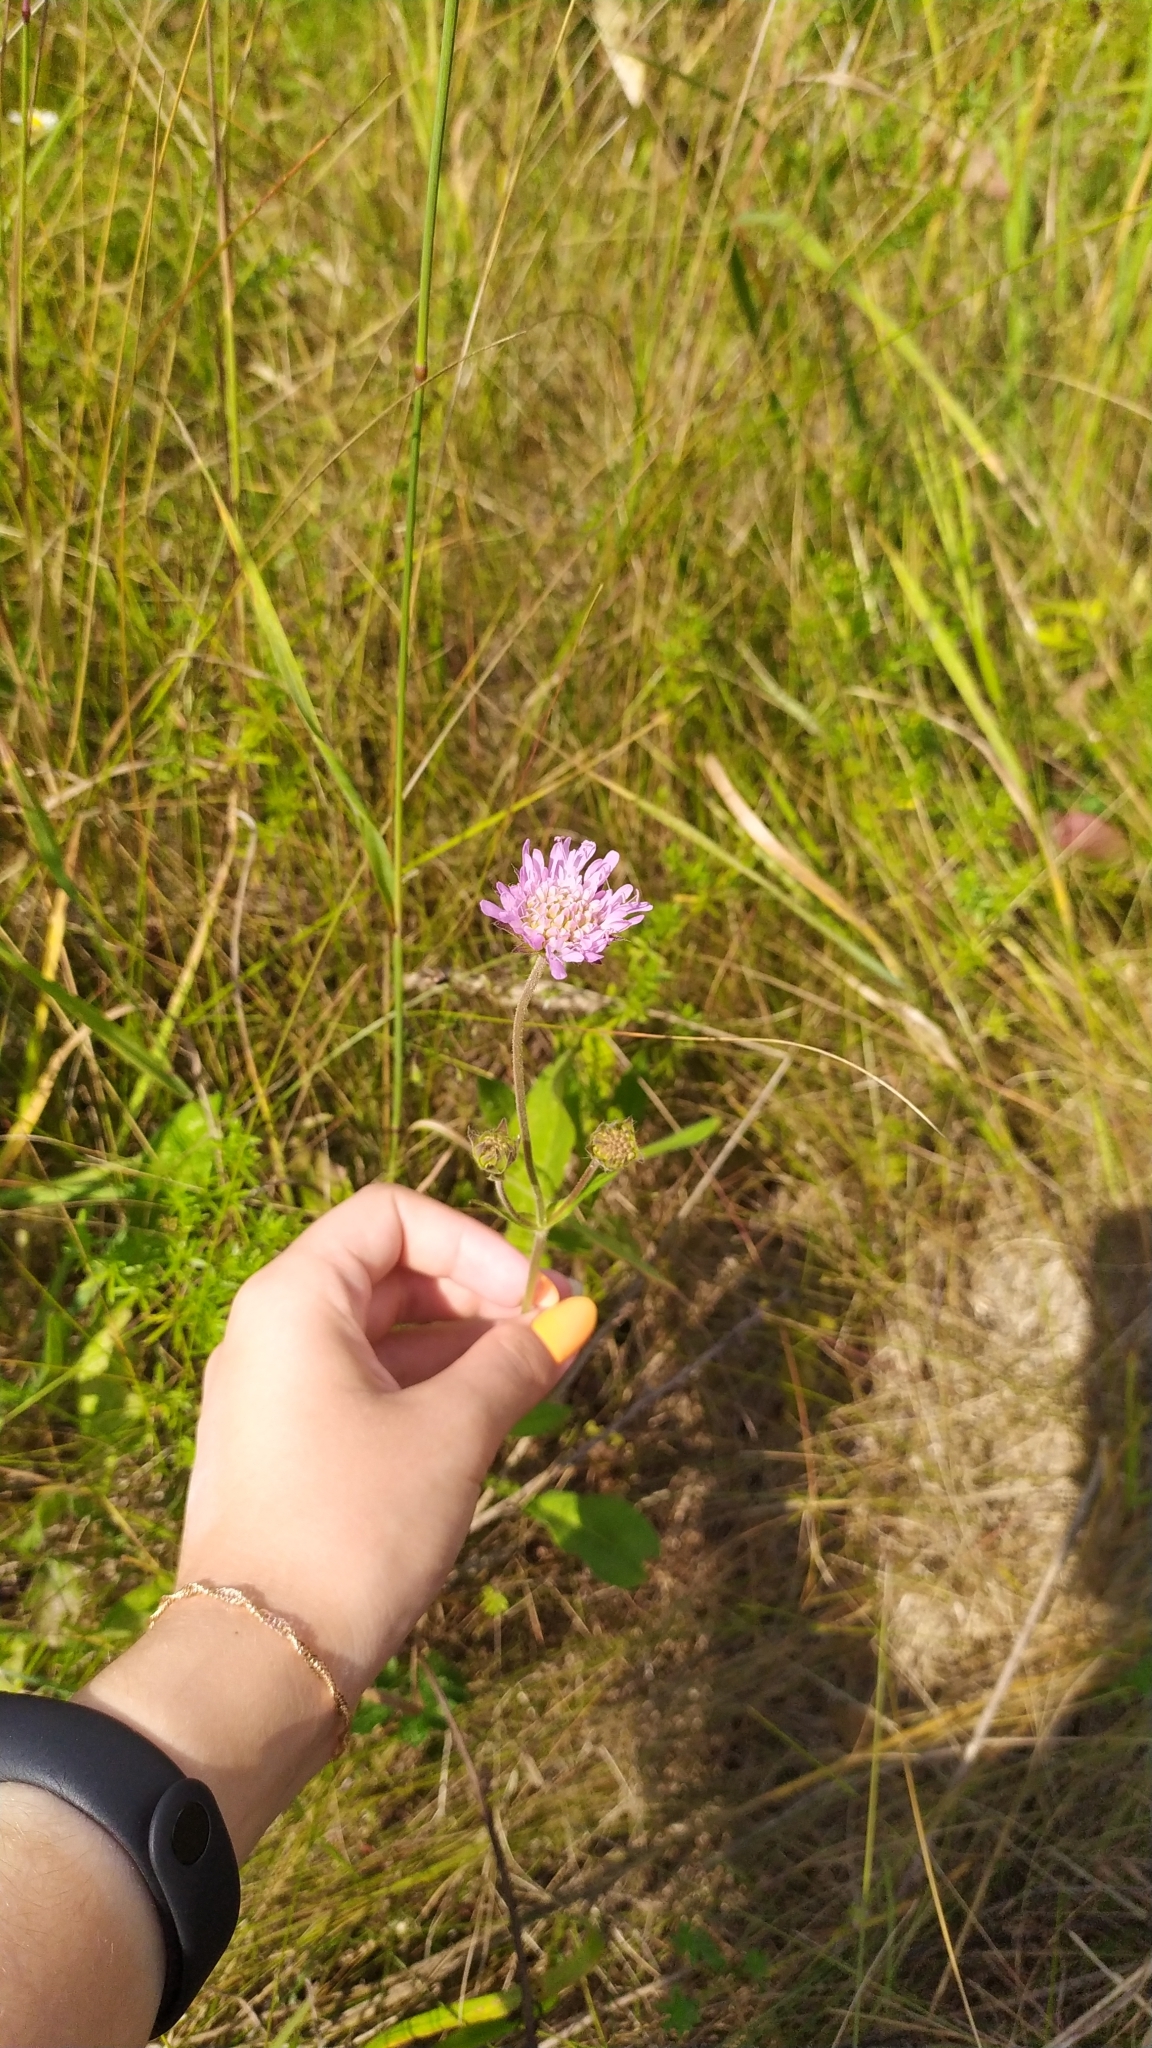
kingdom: Plantae
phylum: Tracheophyta
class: Magnoliopsida
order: Dipsacales
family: Caprifoliaceae
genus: Knautia
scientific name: Knautia arvensis
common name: Field scabiosa
